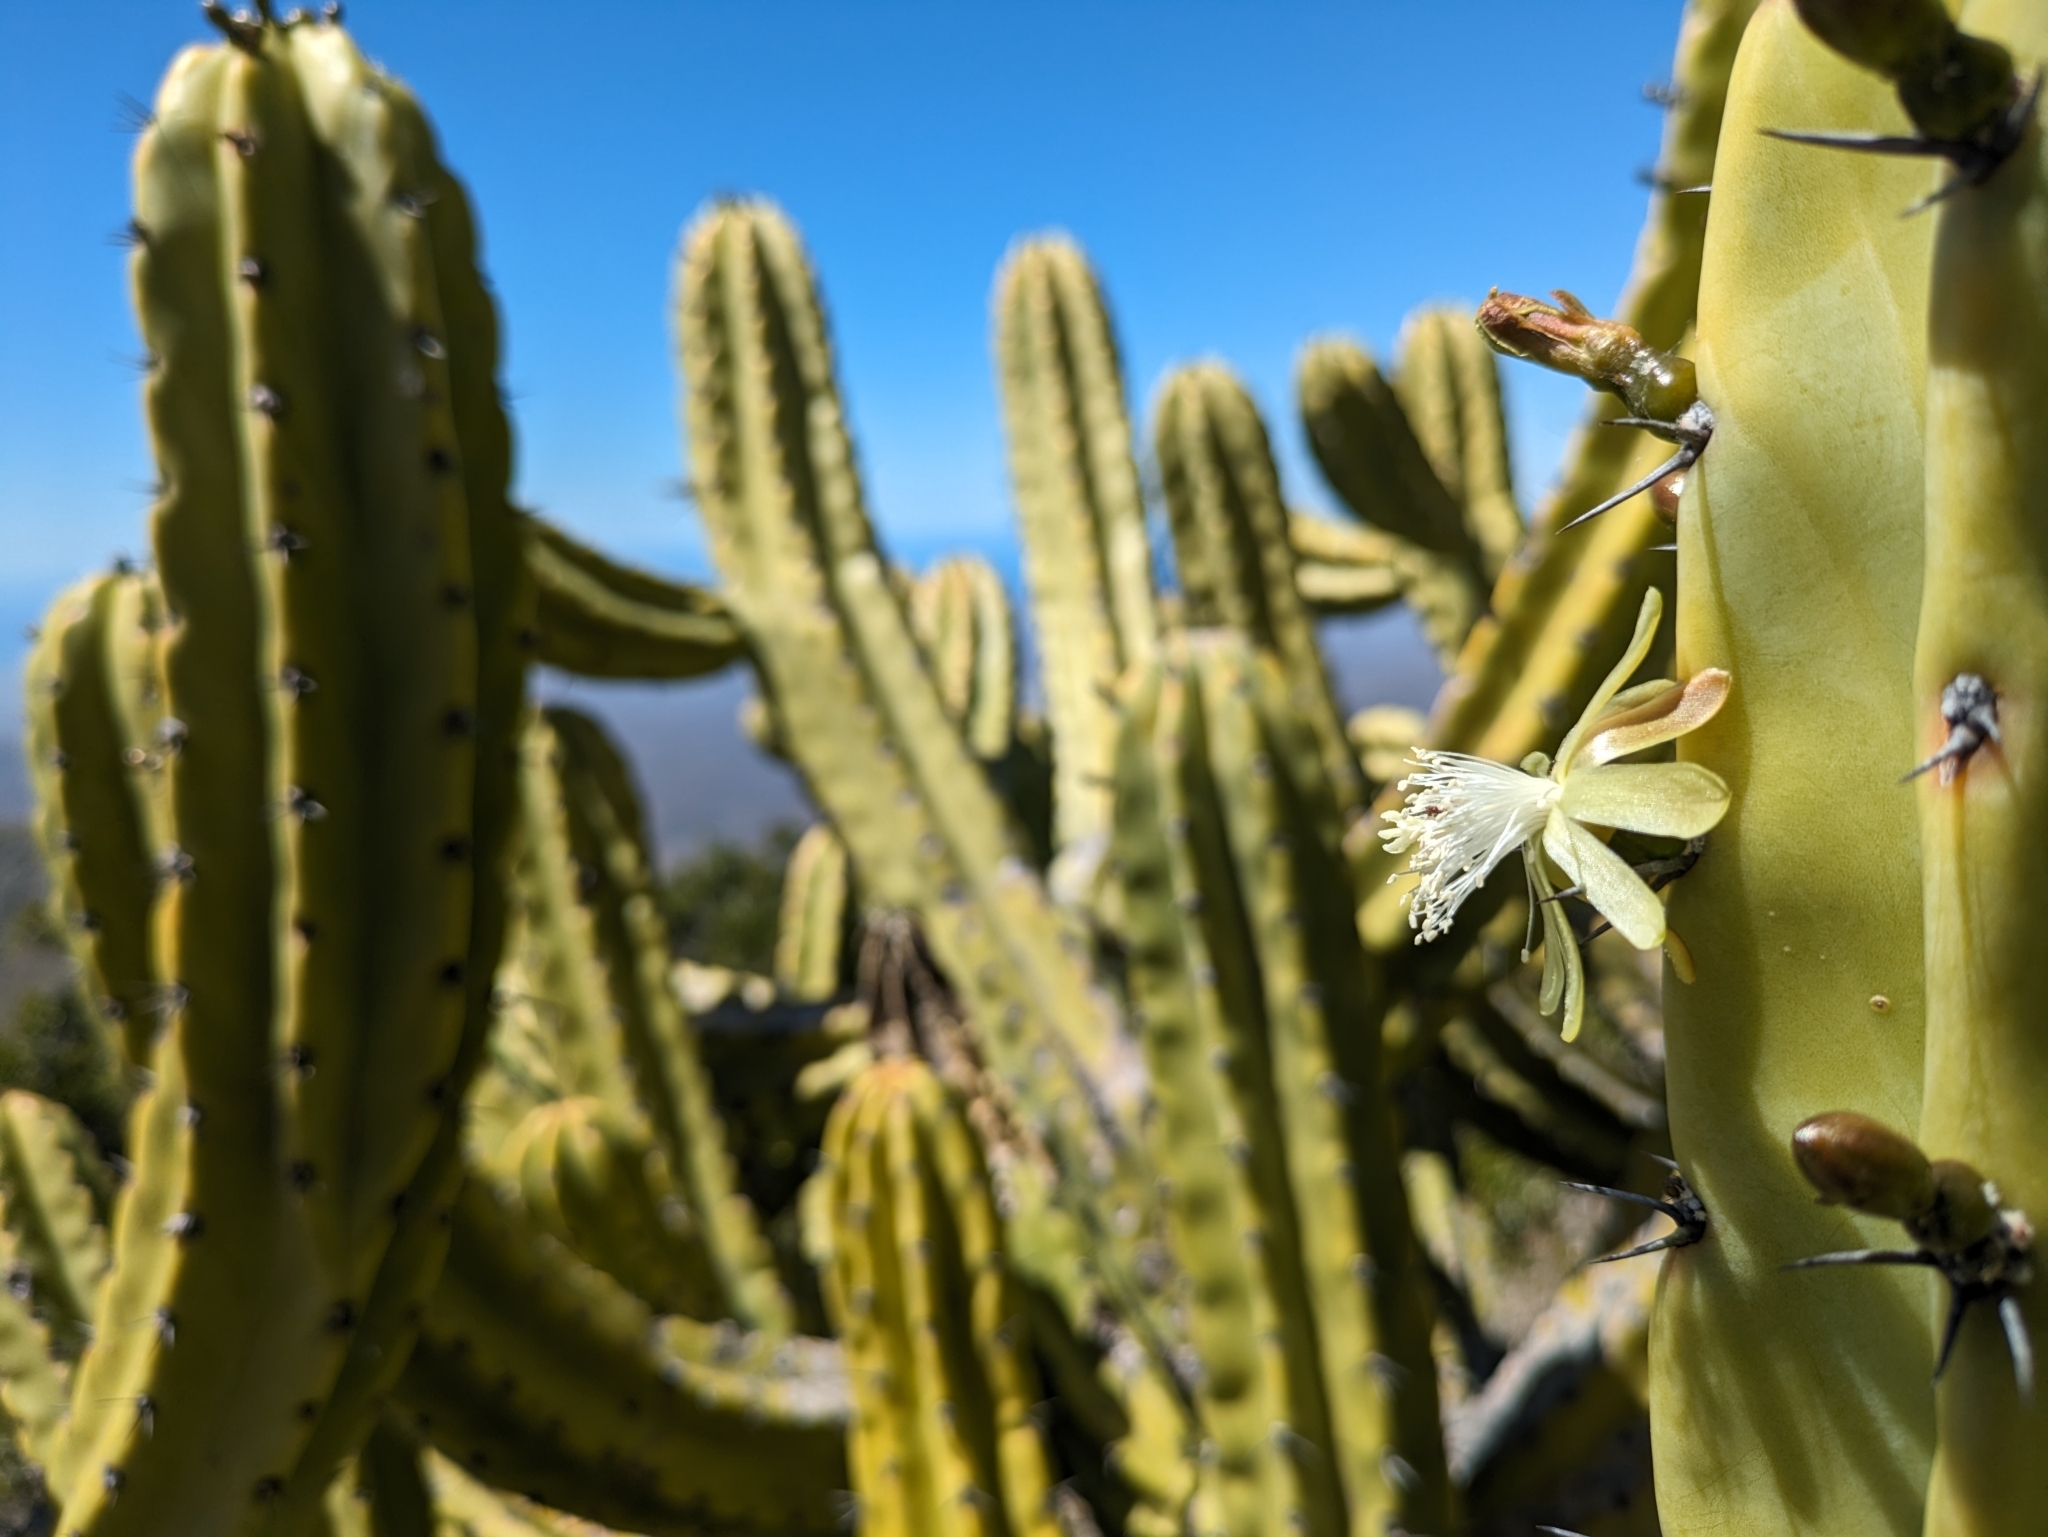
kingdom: Plantae
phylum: Tracheophyta
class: Magnoliopsida
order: Caryophyllales
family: Cactaceae
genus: Myrtillocactus
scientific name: Myrtillocactus cochal
